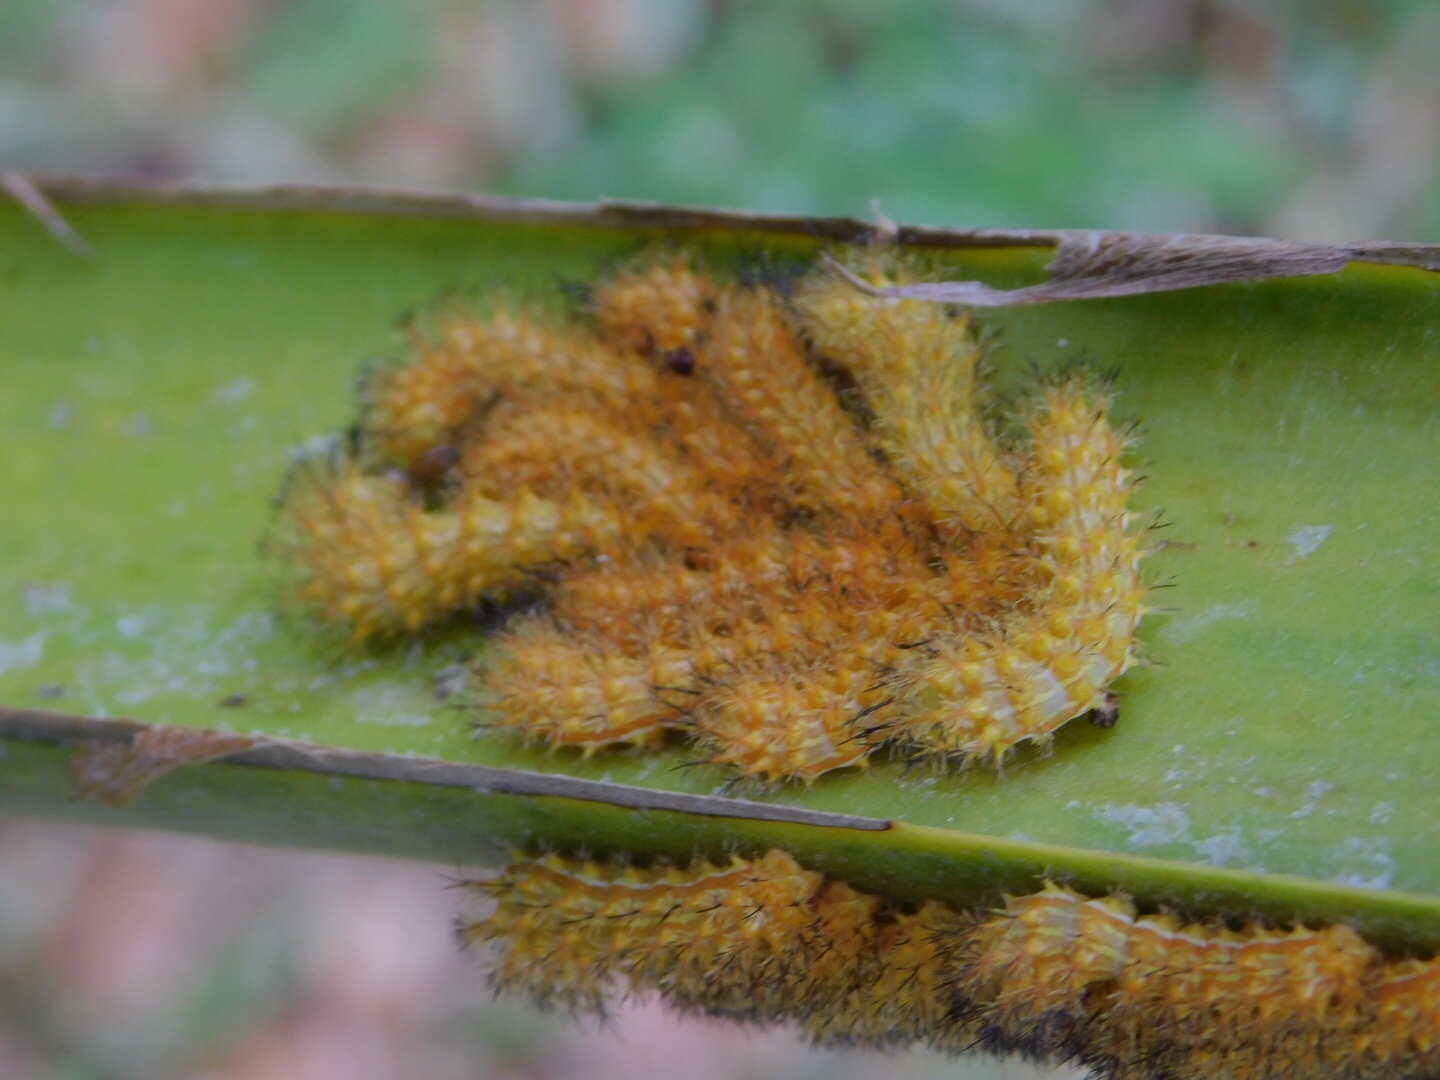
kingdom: Animalia
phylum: Arthropoda
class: Insecta
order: Lepidoptera
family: Saturniidae
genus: Automeris
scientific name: Automeris io
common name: Io moth
